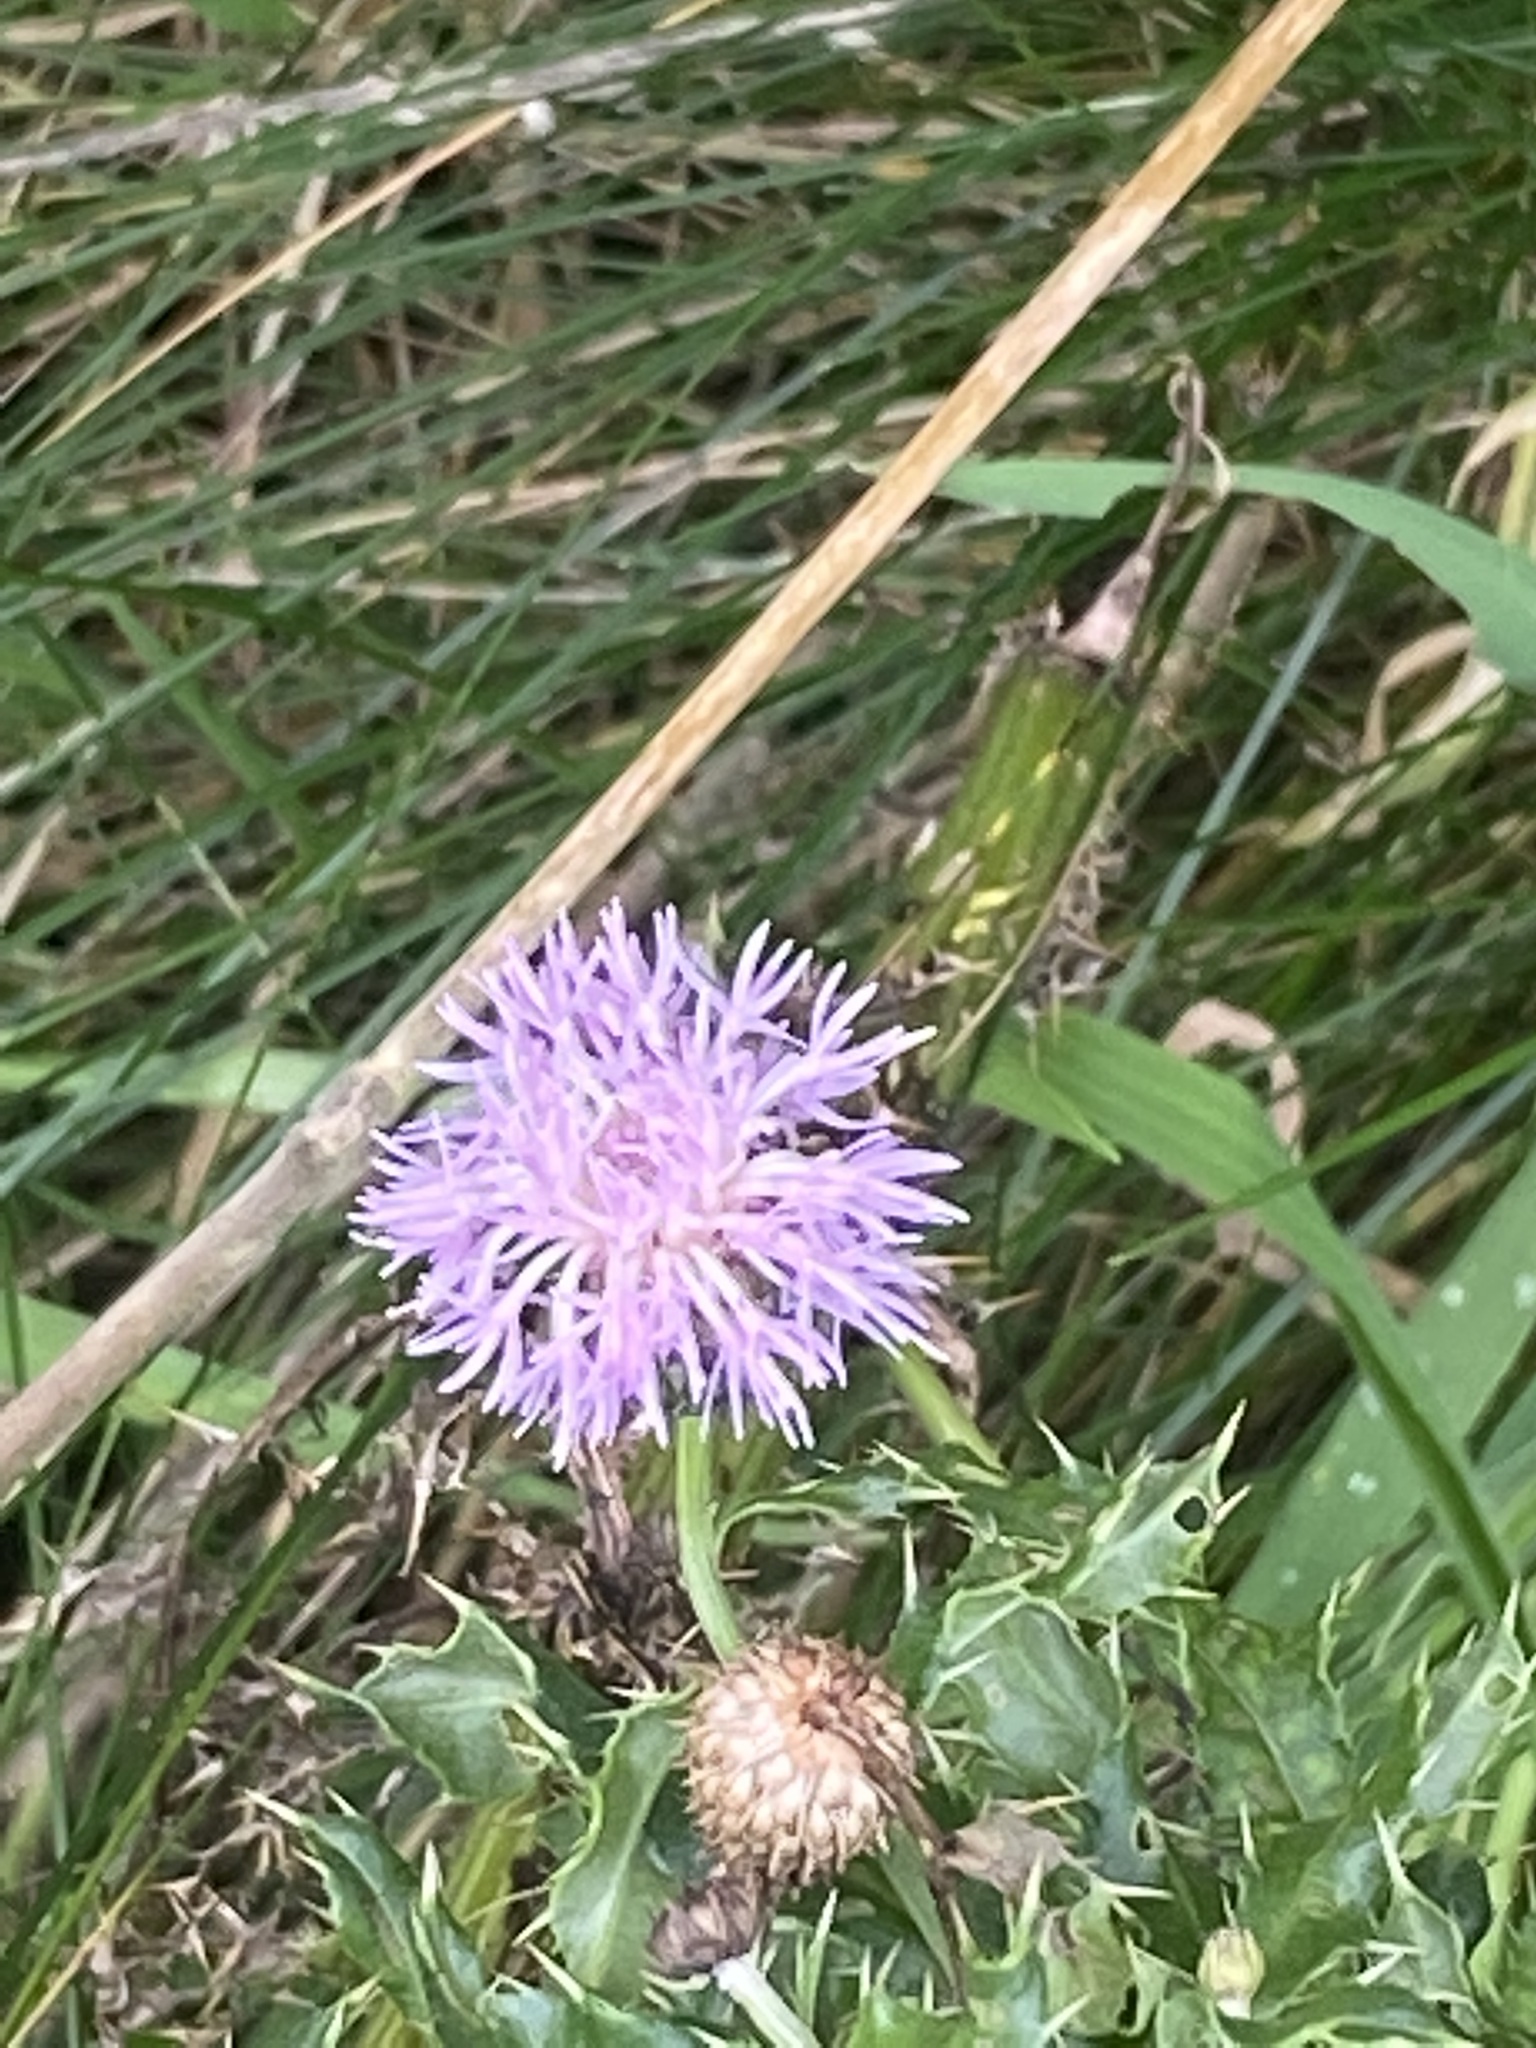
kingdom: Plantae
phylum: Tracheophyta
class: Magnoliopsida
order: Asterales
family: Asteraceae
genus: Cirsium
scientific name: Cirsium arvense
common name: Creeping thistle
